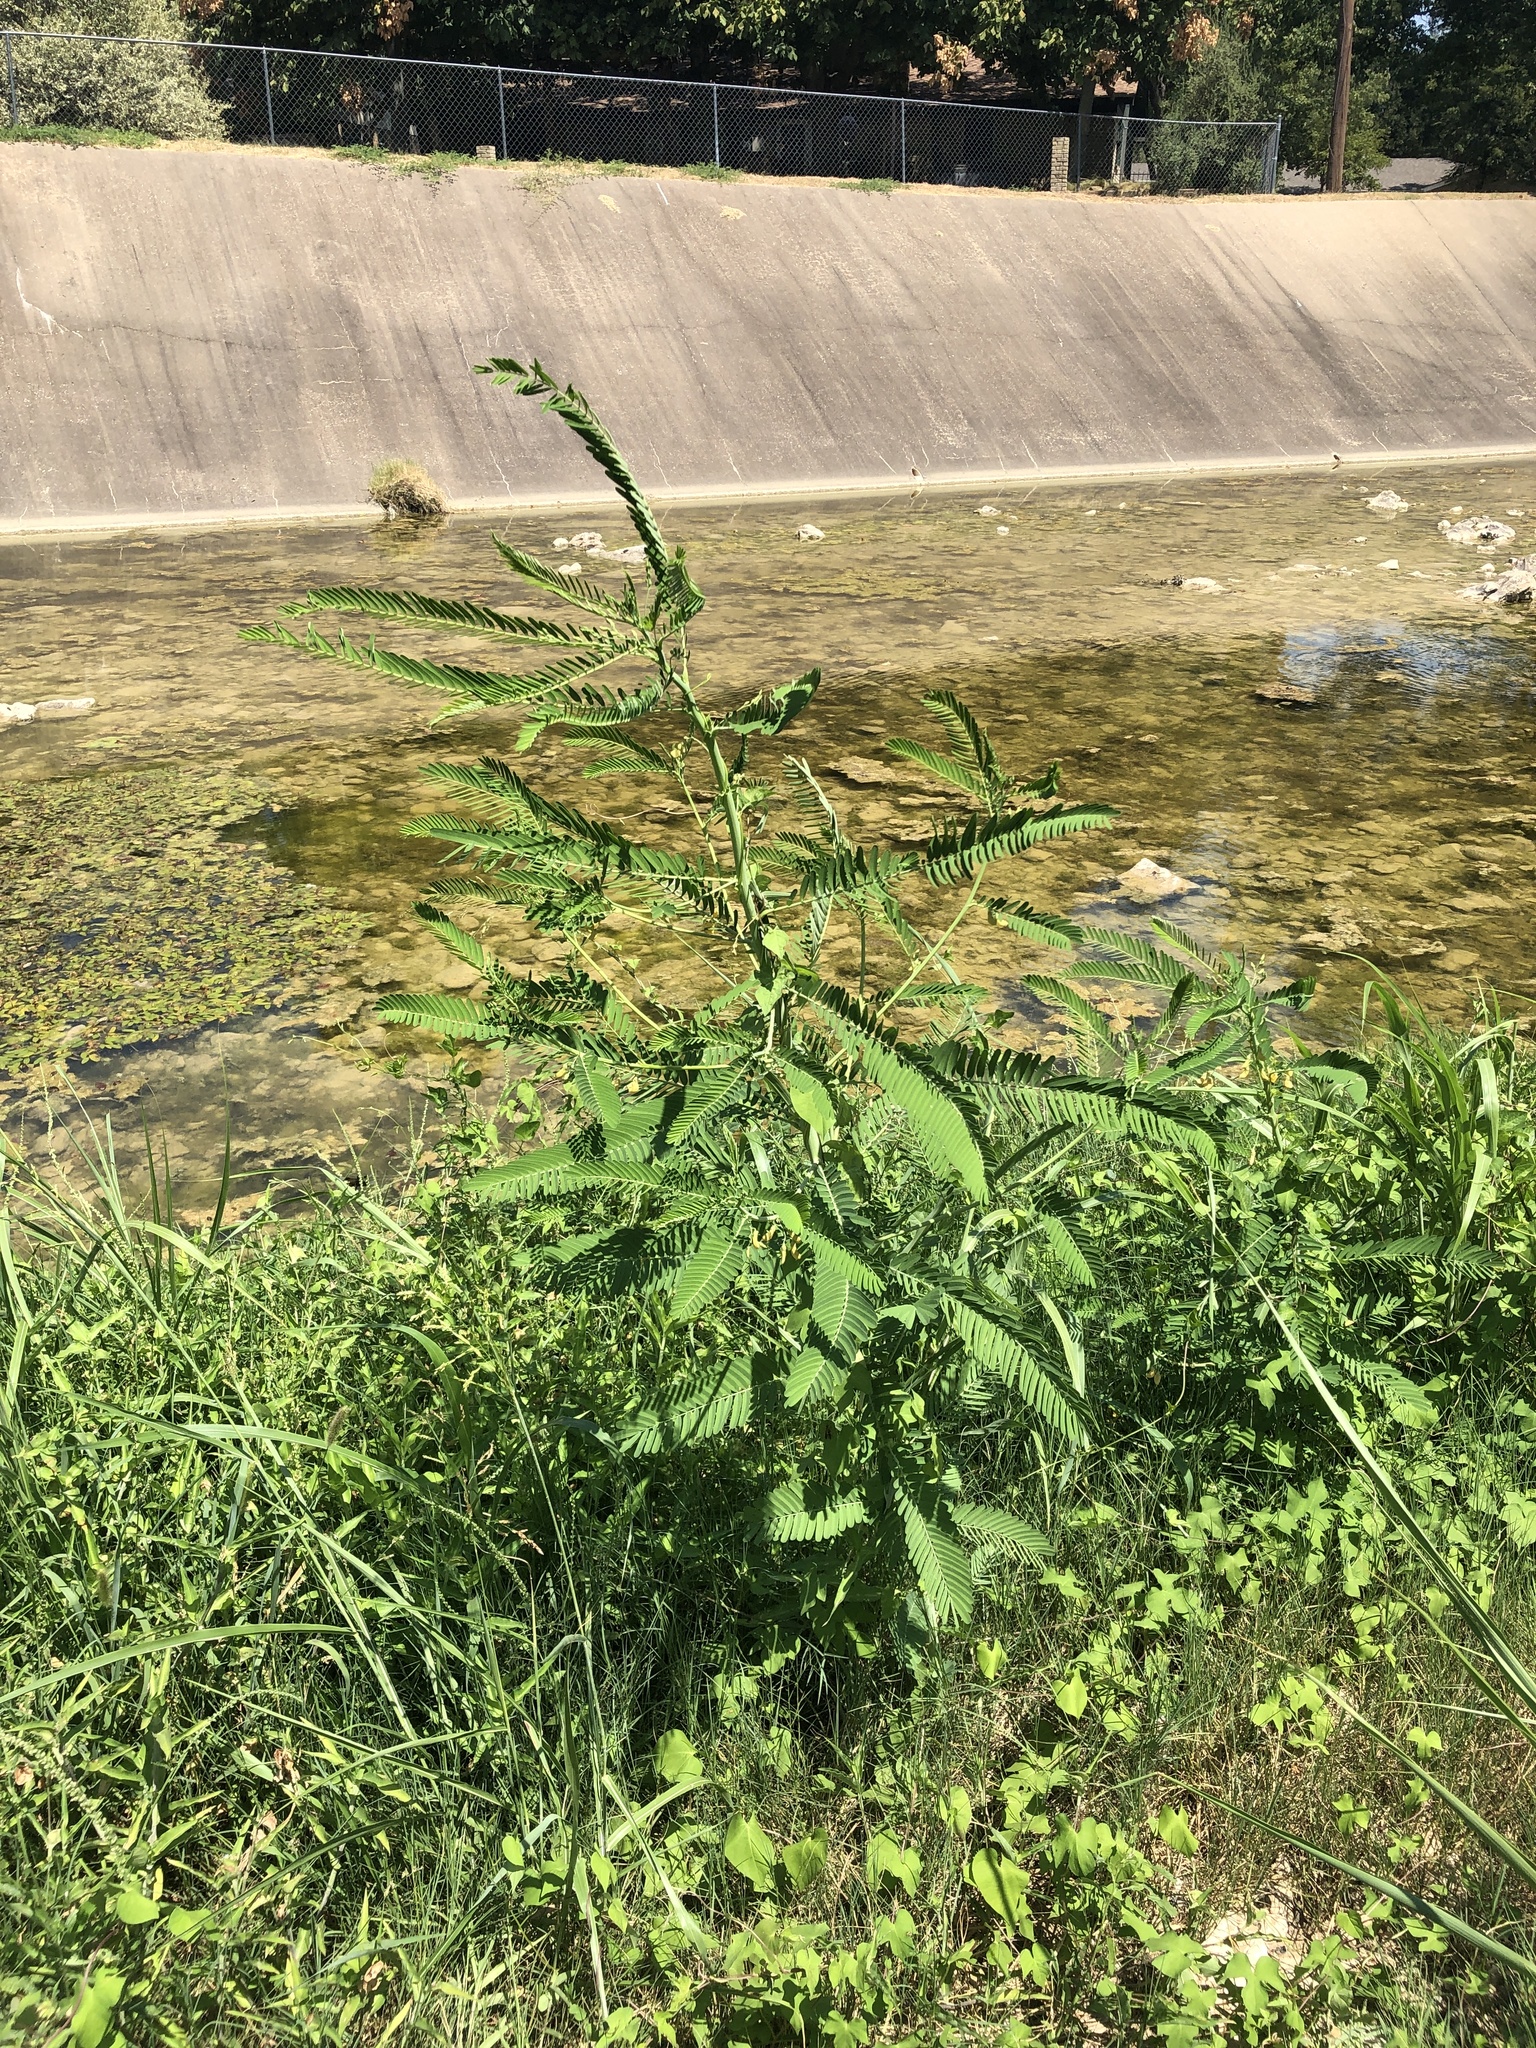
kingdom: Plantae
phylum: Tracheophyta
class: Magnoliopsida
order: Fabales
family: Fabaceae
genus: Sesbania
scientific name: Sesbania herbacea
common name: Bigpod sesbania
